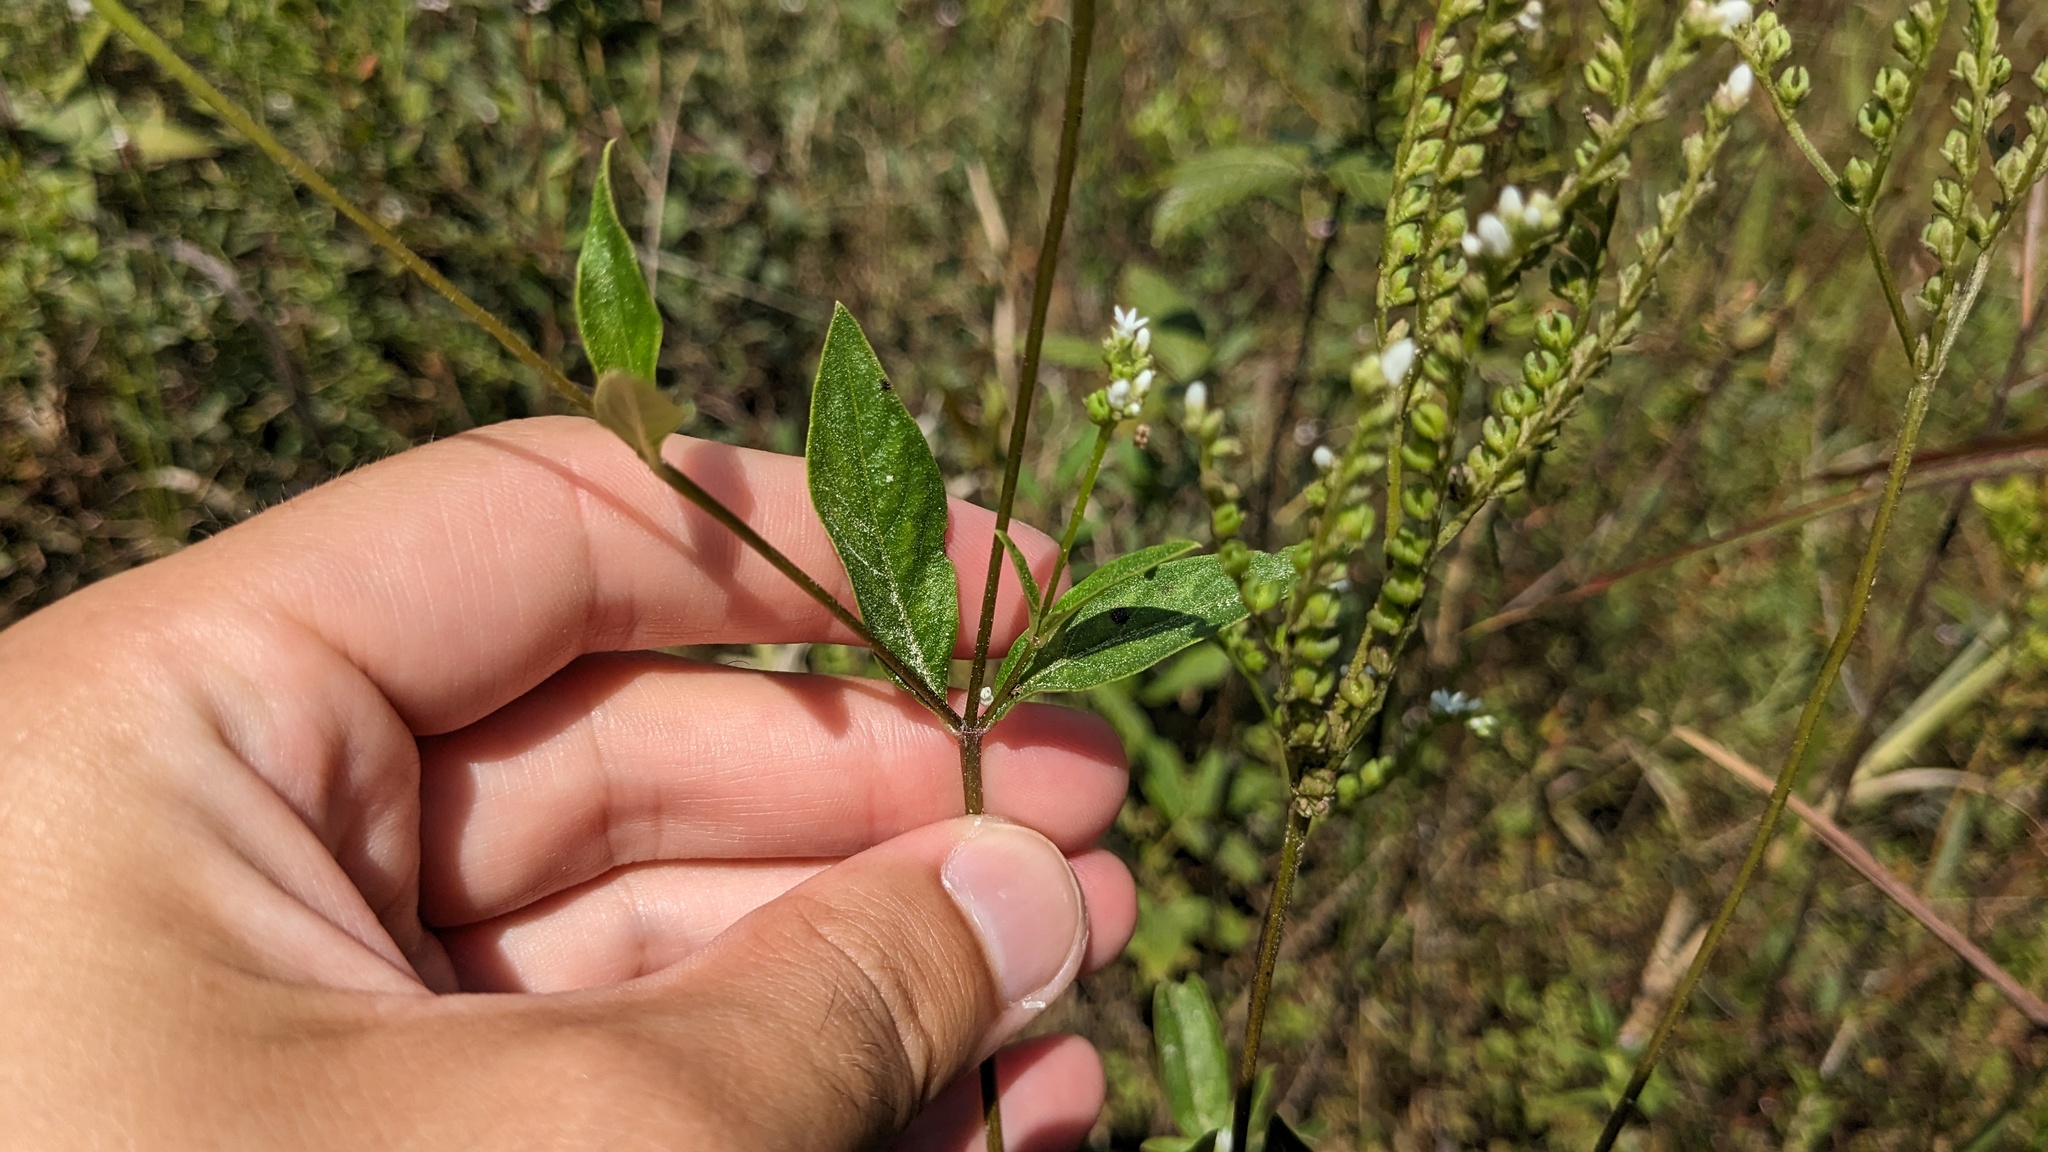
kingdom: Plantae
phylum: Tracheophyta
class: Magnoliopsida
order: Gentianales
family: Loganiaceae
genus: Mitreola
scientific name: Mitreola petiolata
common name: Lax hornpod
